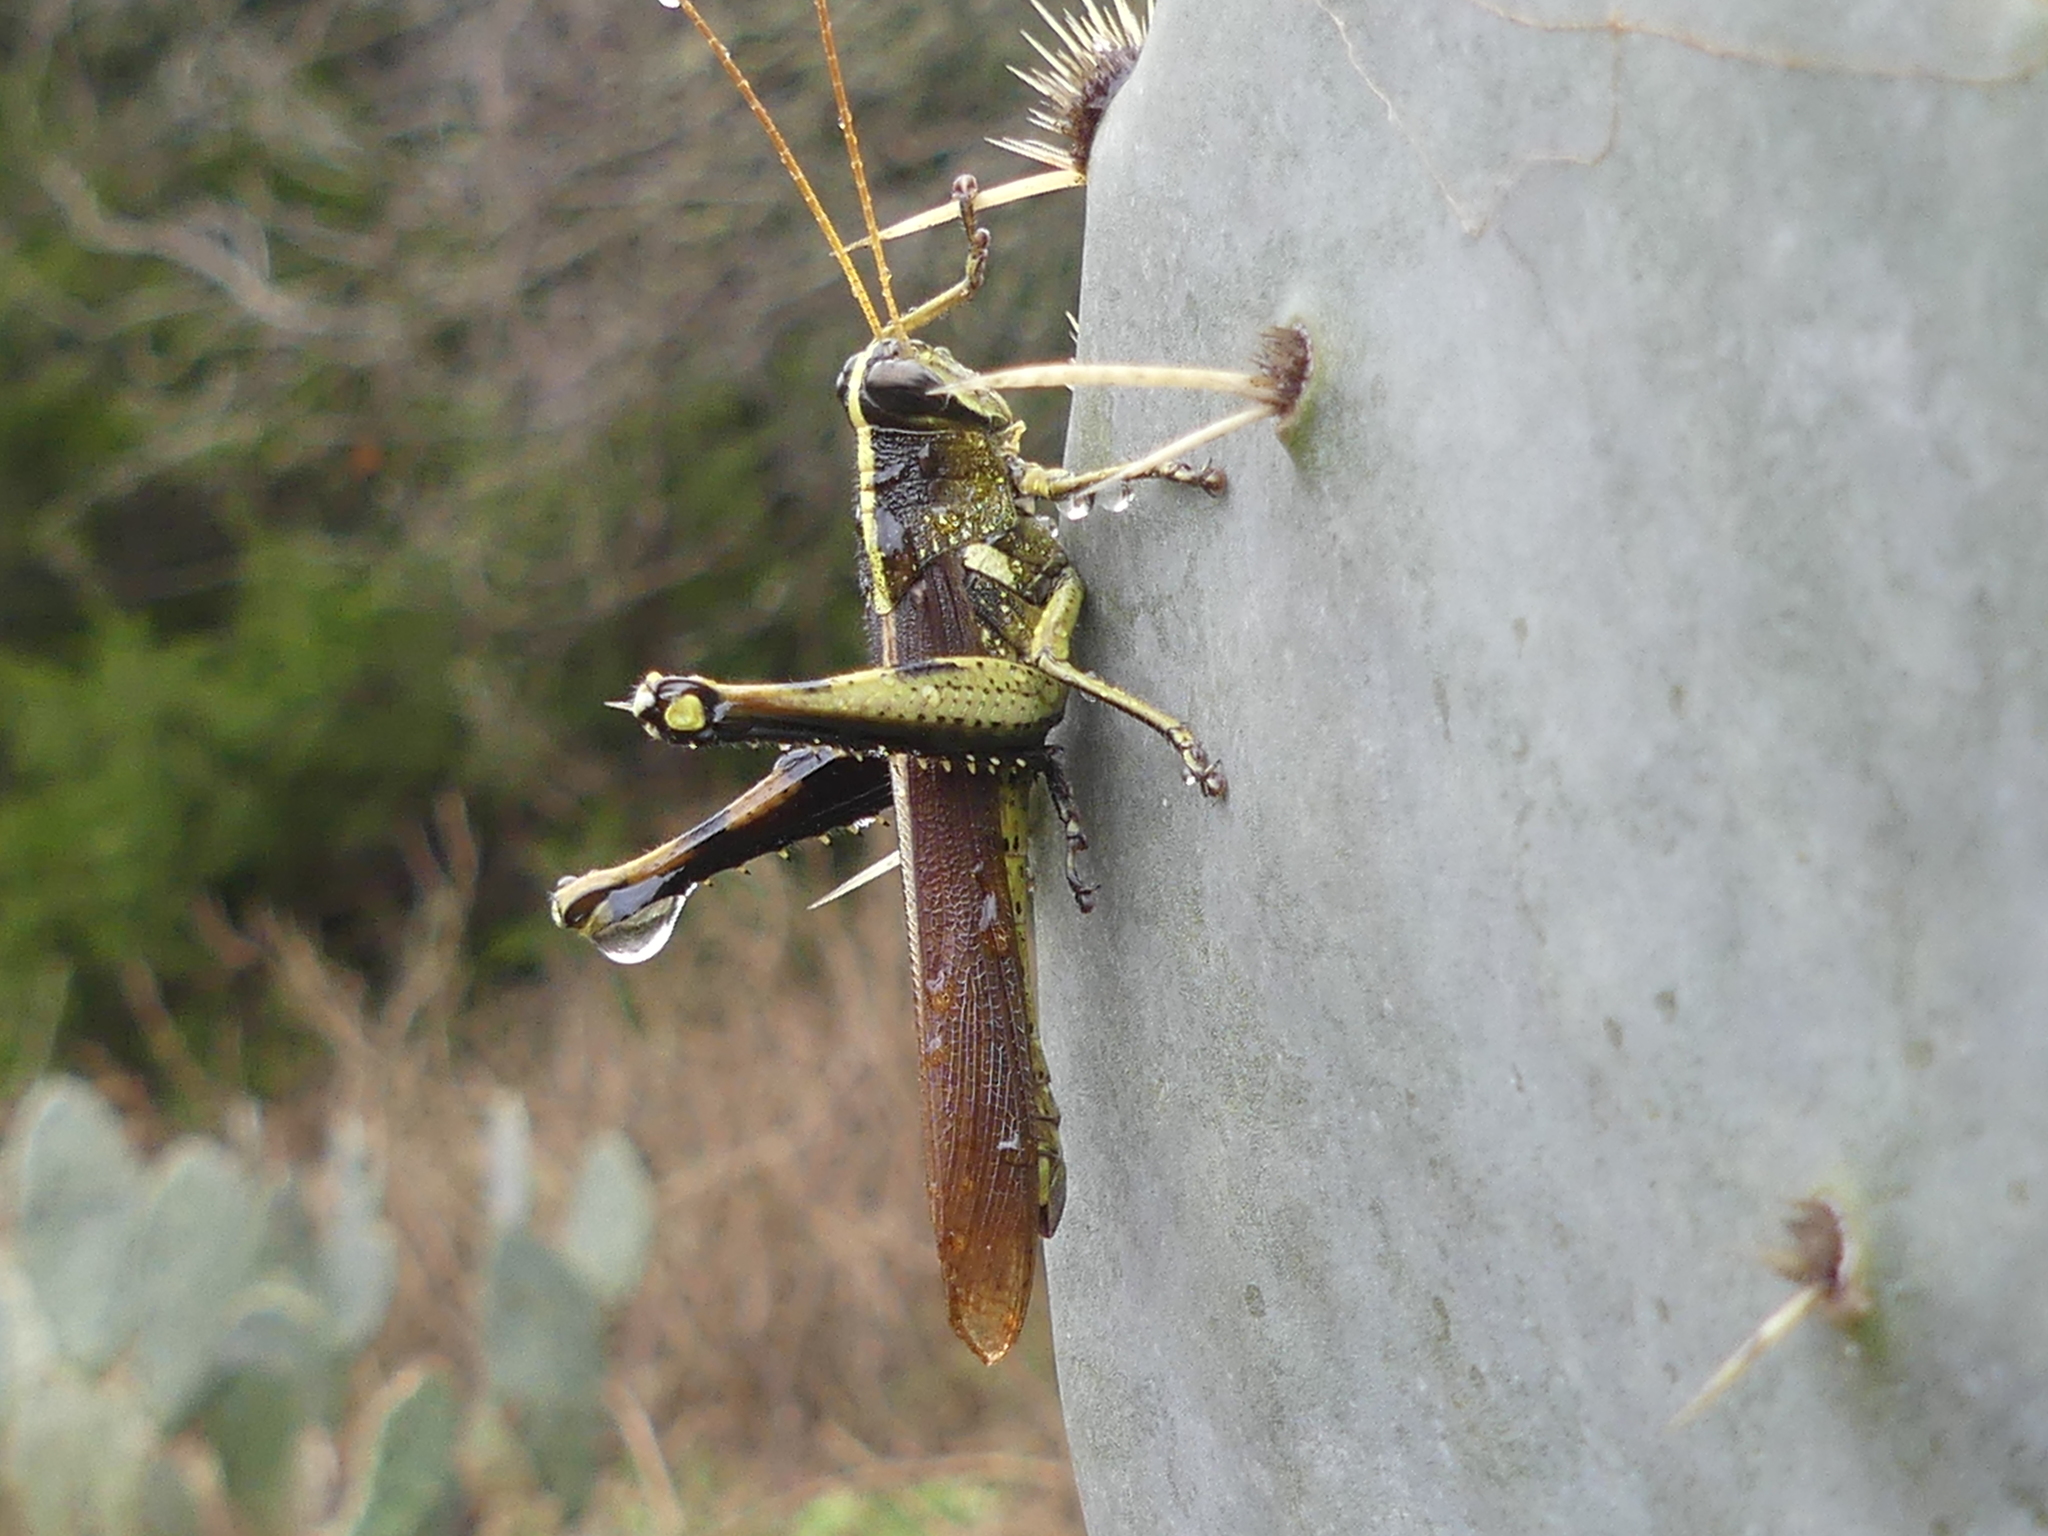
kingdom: Animalia
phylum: Arthropoda
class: Insecta
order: Orthoptera
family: Acrididae
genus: Schistocerca
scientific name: Schistocerca obscura
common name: Obscure bird grasshopper
